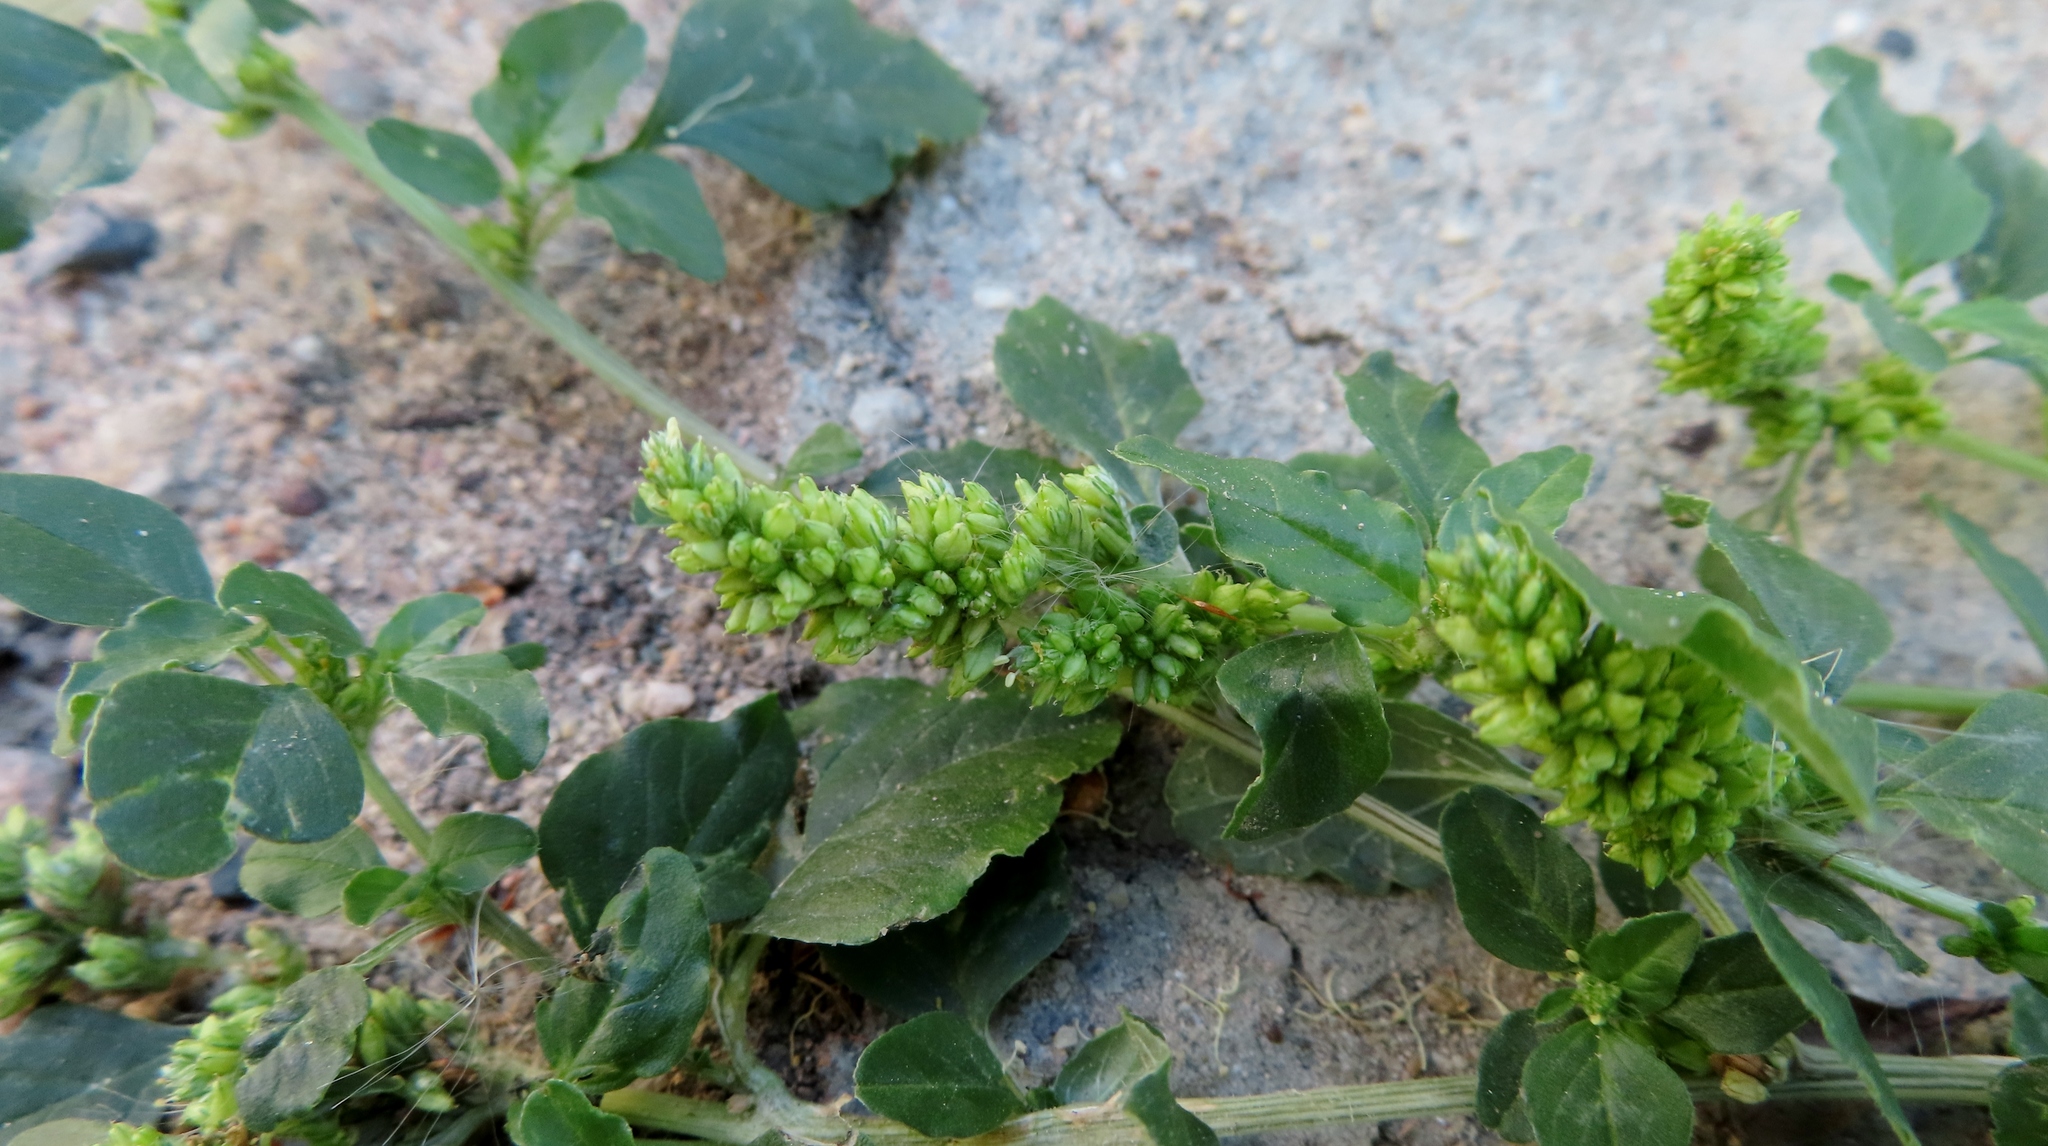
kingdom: Plantae
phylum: Tracheophyta
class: Magnoliopsida
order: Caryophyllales
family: Amaranthaceae
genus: Amaranthus
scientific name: Amaranthus deflexus
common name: Perennial pigweed
